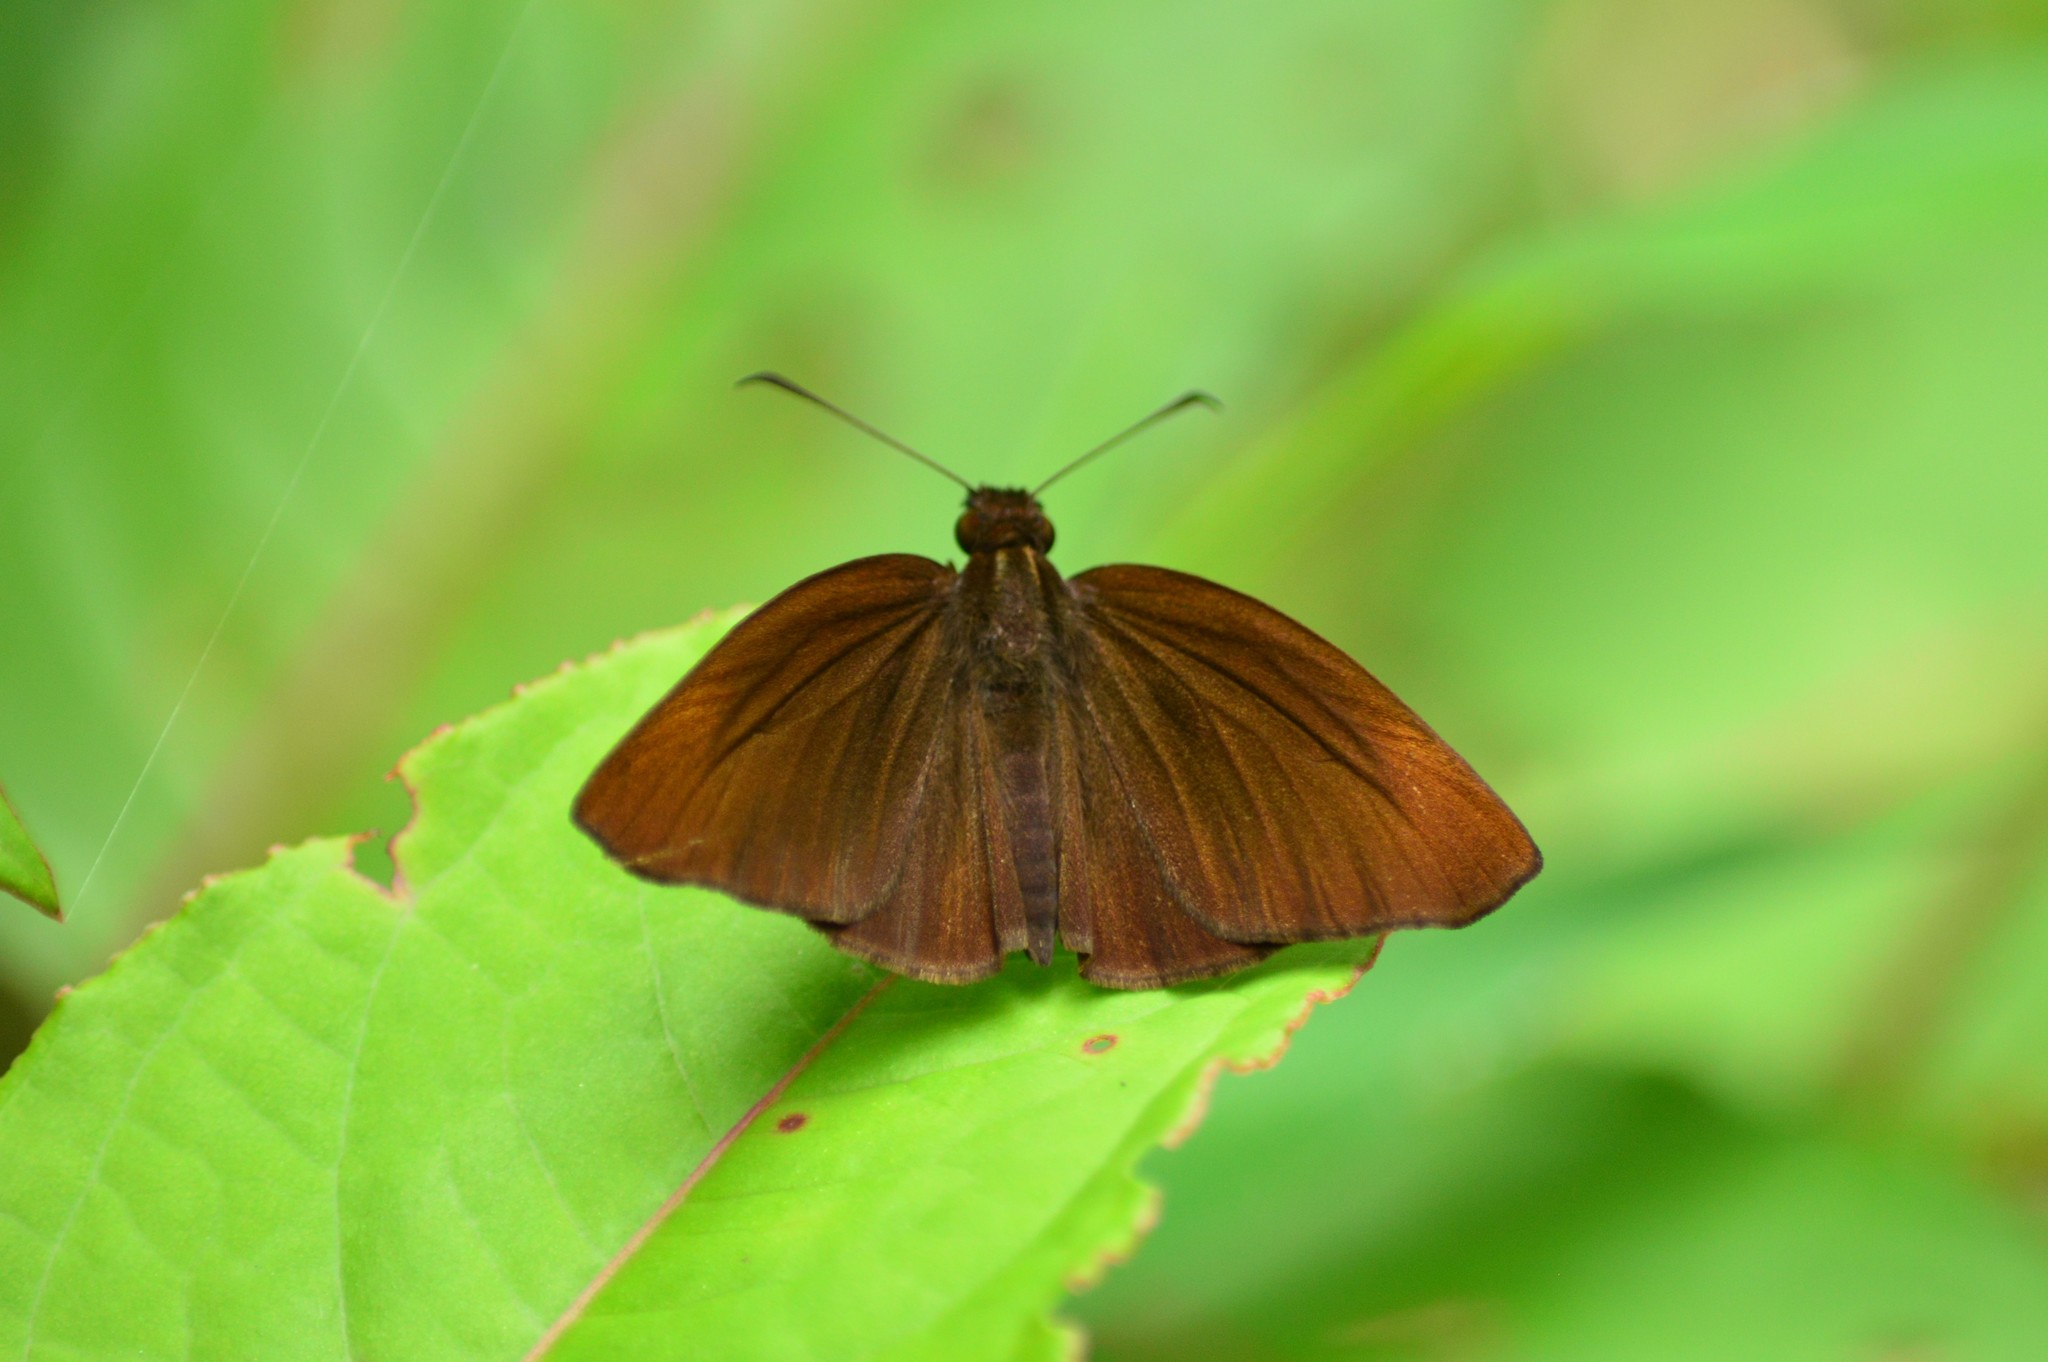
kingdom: Animalia
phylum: Arthropoda
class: Insecta
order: Lepidoptera
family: Hesperiidae
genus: Psolos
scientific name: Psolos fuligo
